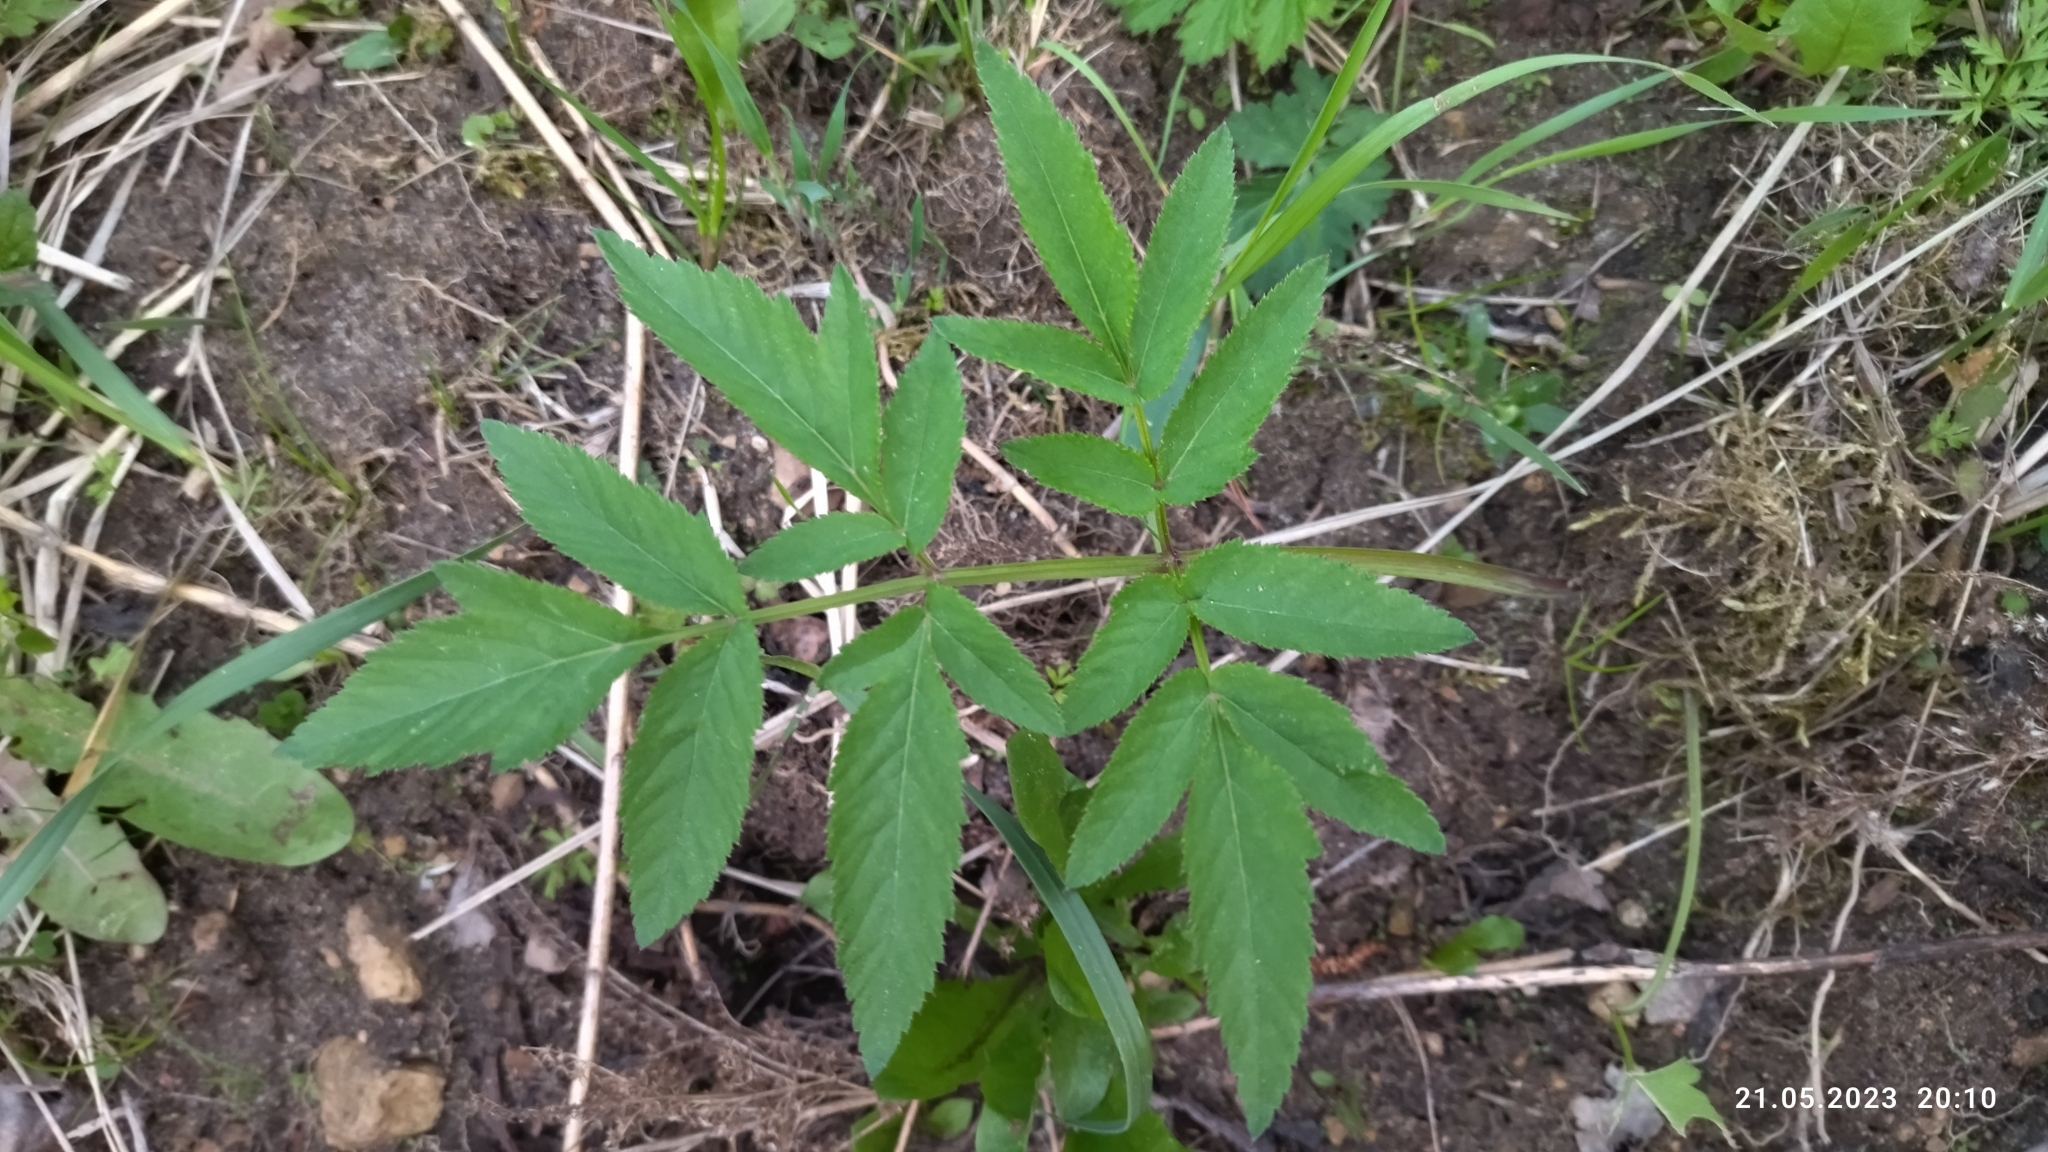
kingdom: Plantae
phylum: Tracheophyta
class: Magnoliopsida
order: Apiales
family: Apiaceae
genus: Angelica
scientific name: Angelica sylvestris
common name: Wild angelica
